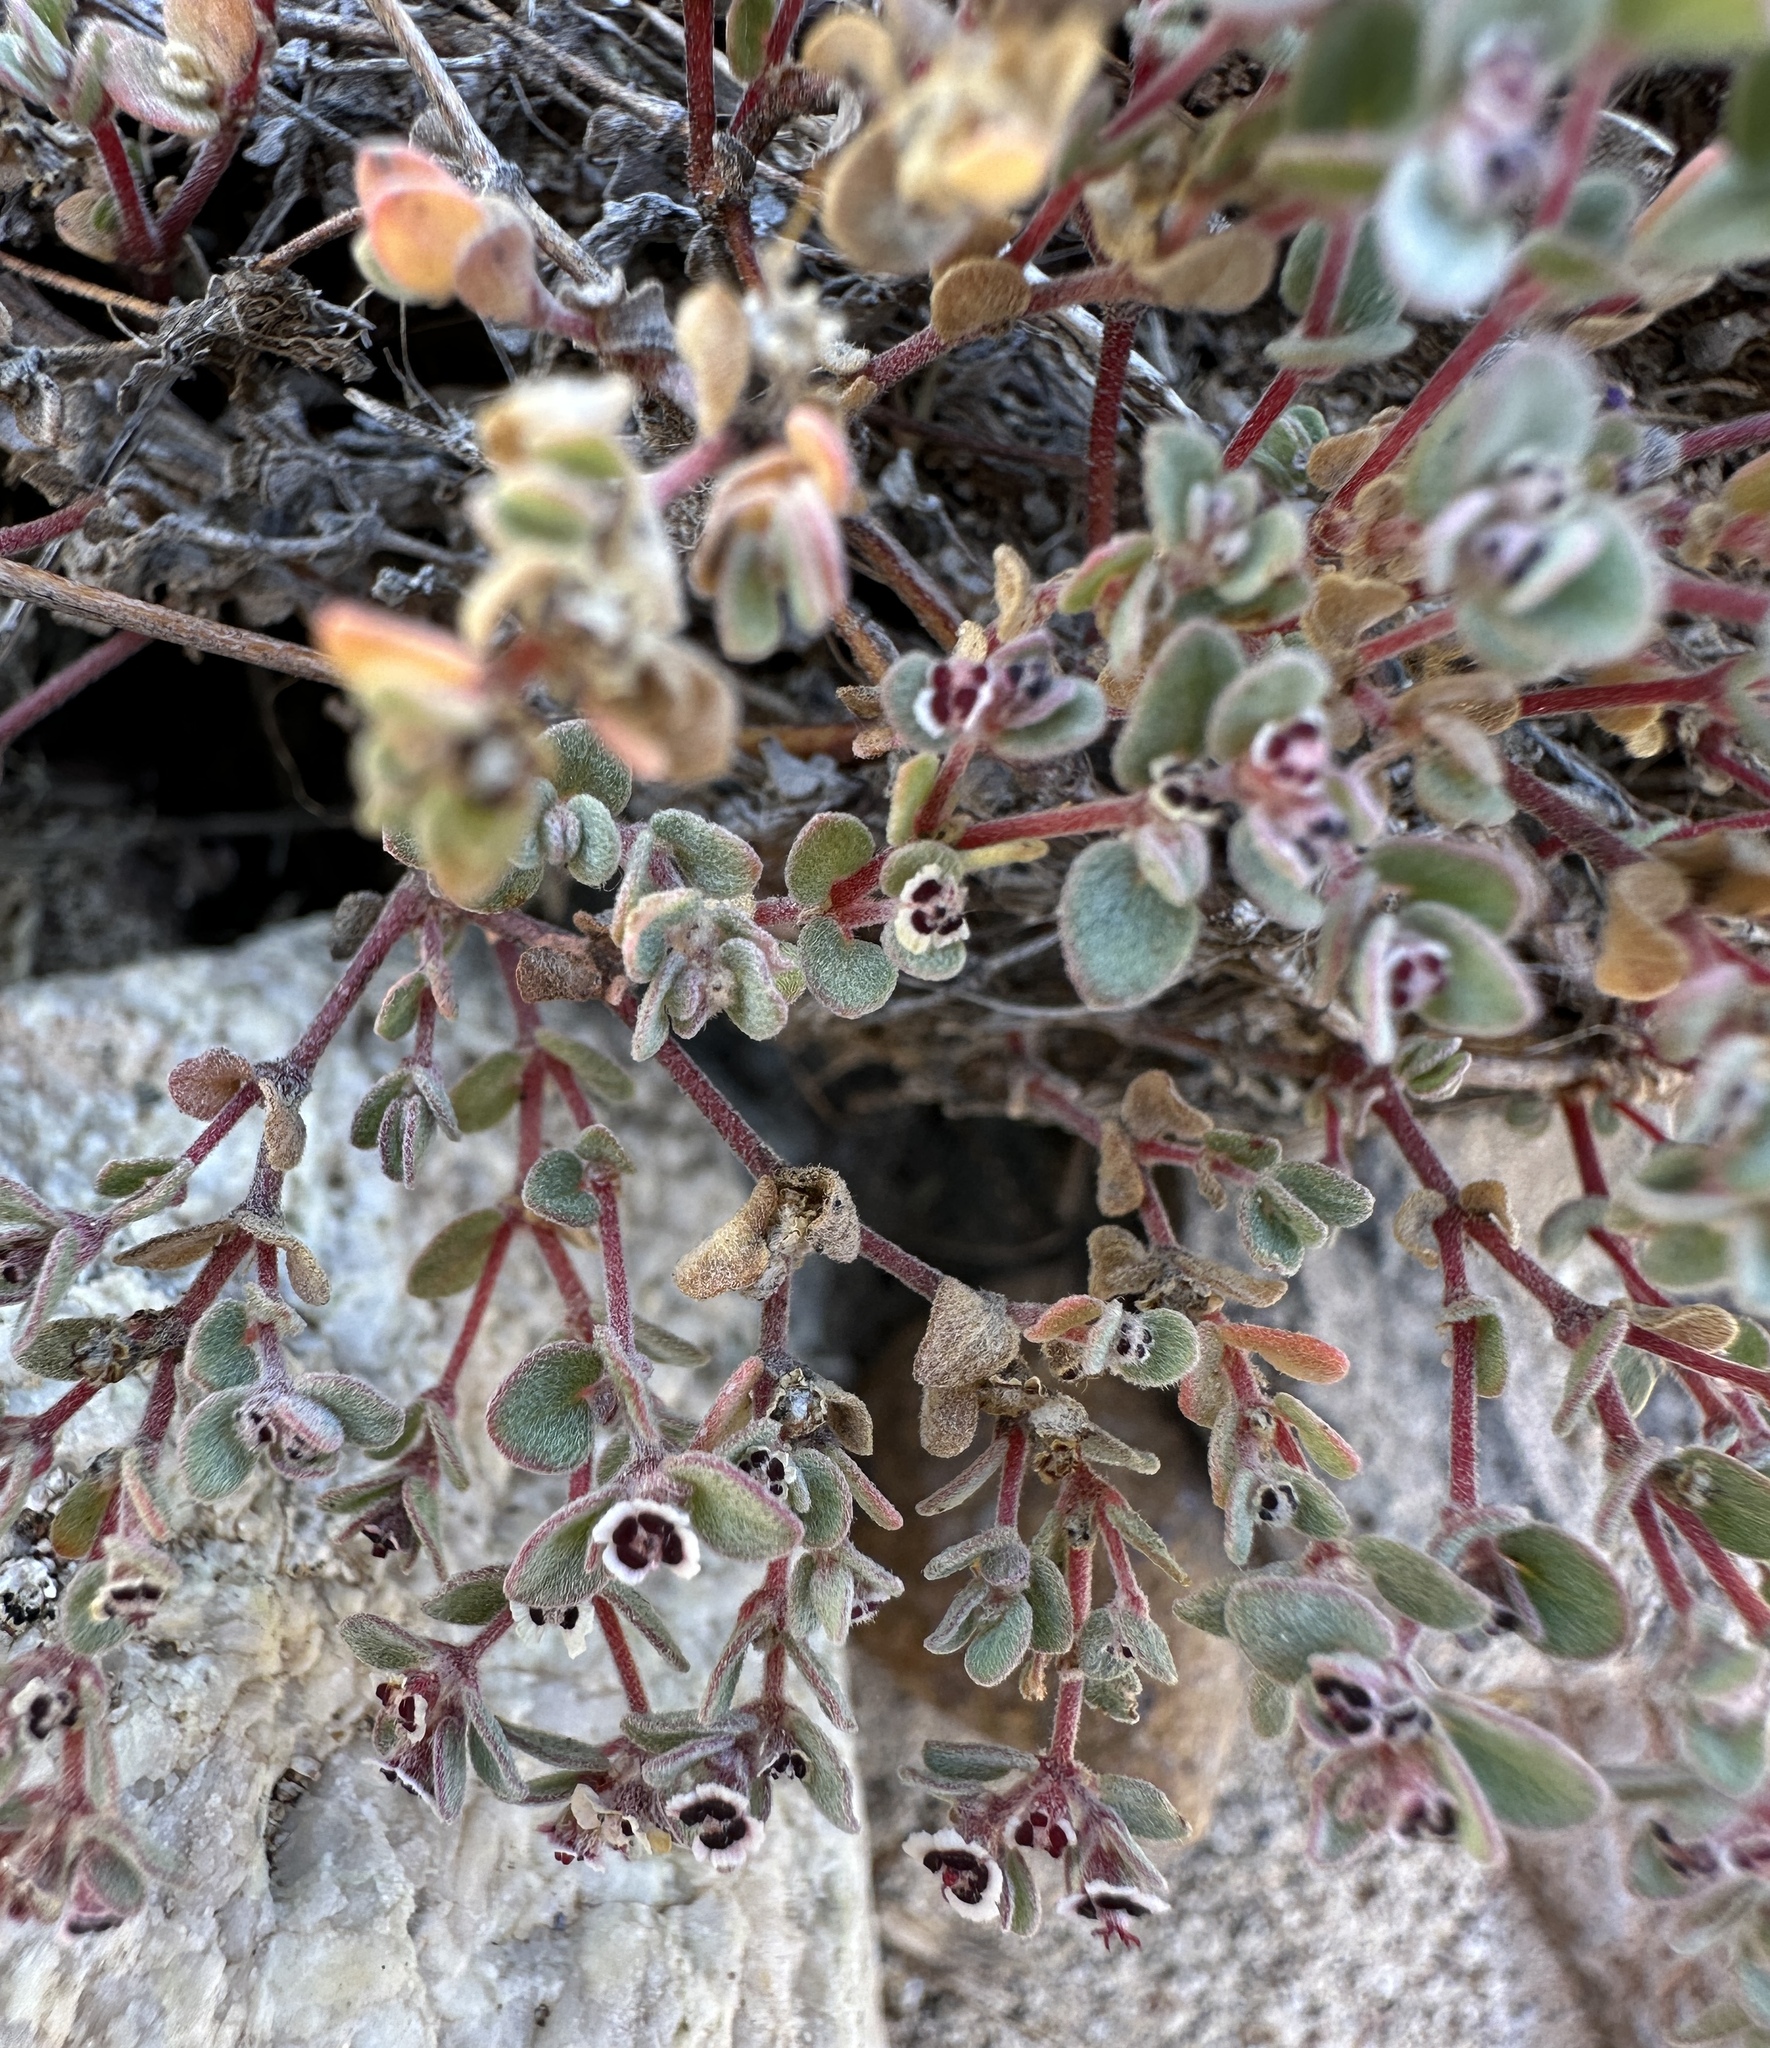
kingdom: Plantae
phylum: Tracheophyta
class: Magnoliopsida
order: Malpighiales
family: Euphorbiaceae
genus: Euphorbia
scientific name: Euphorbia melanadenia
